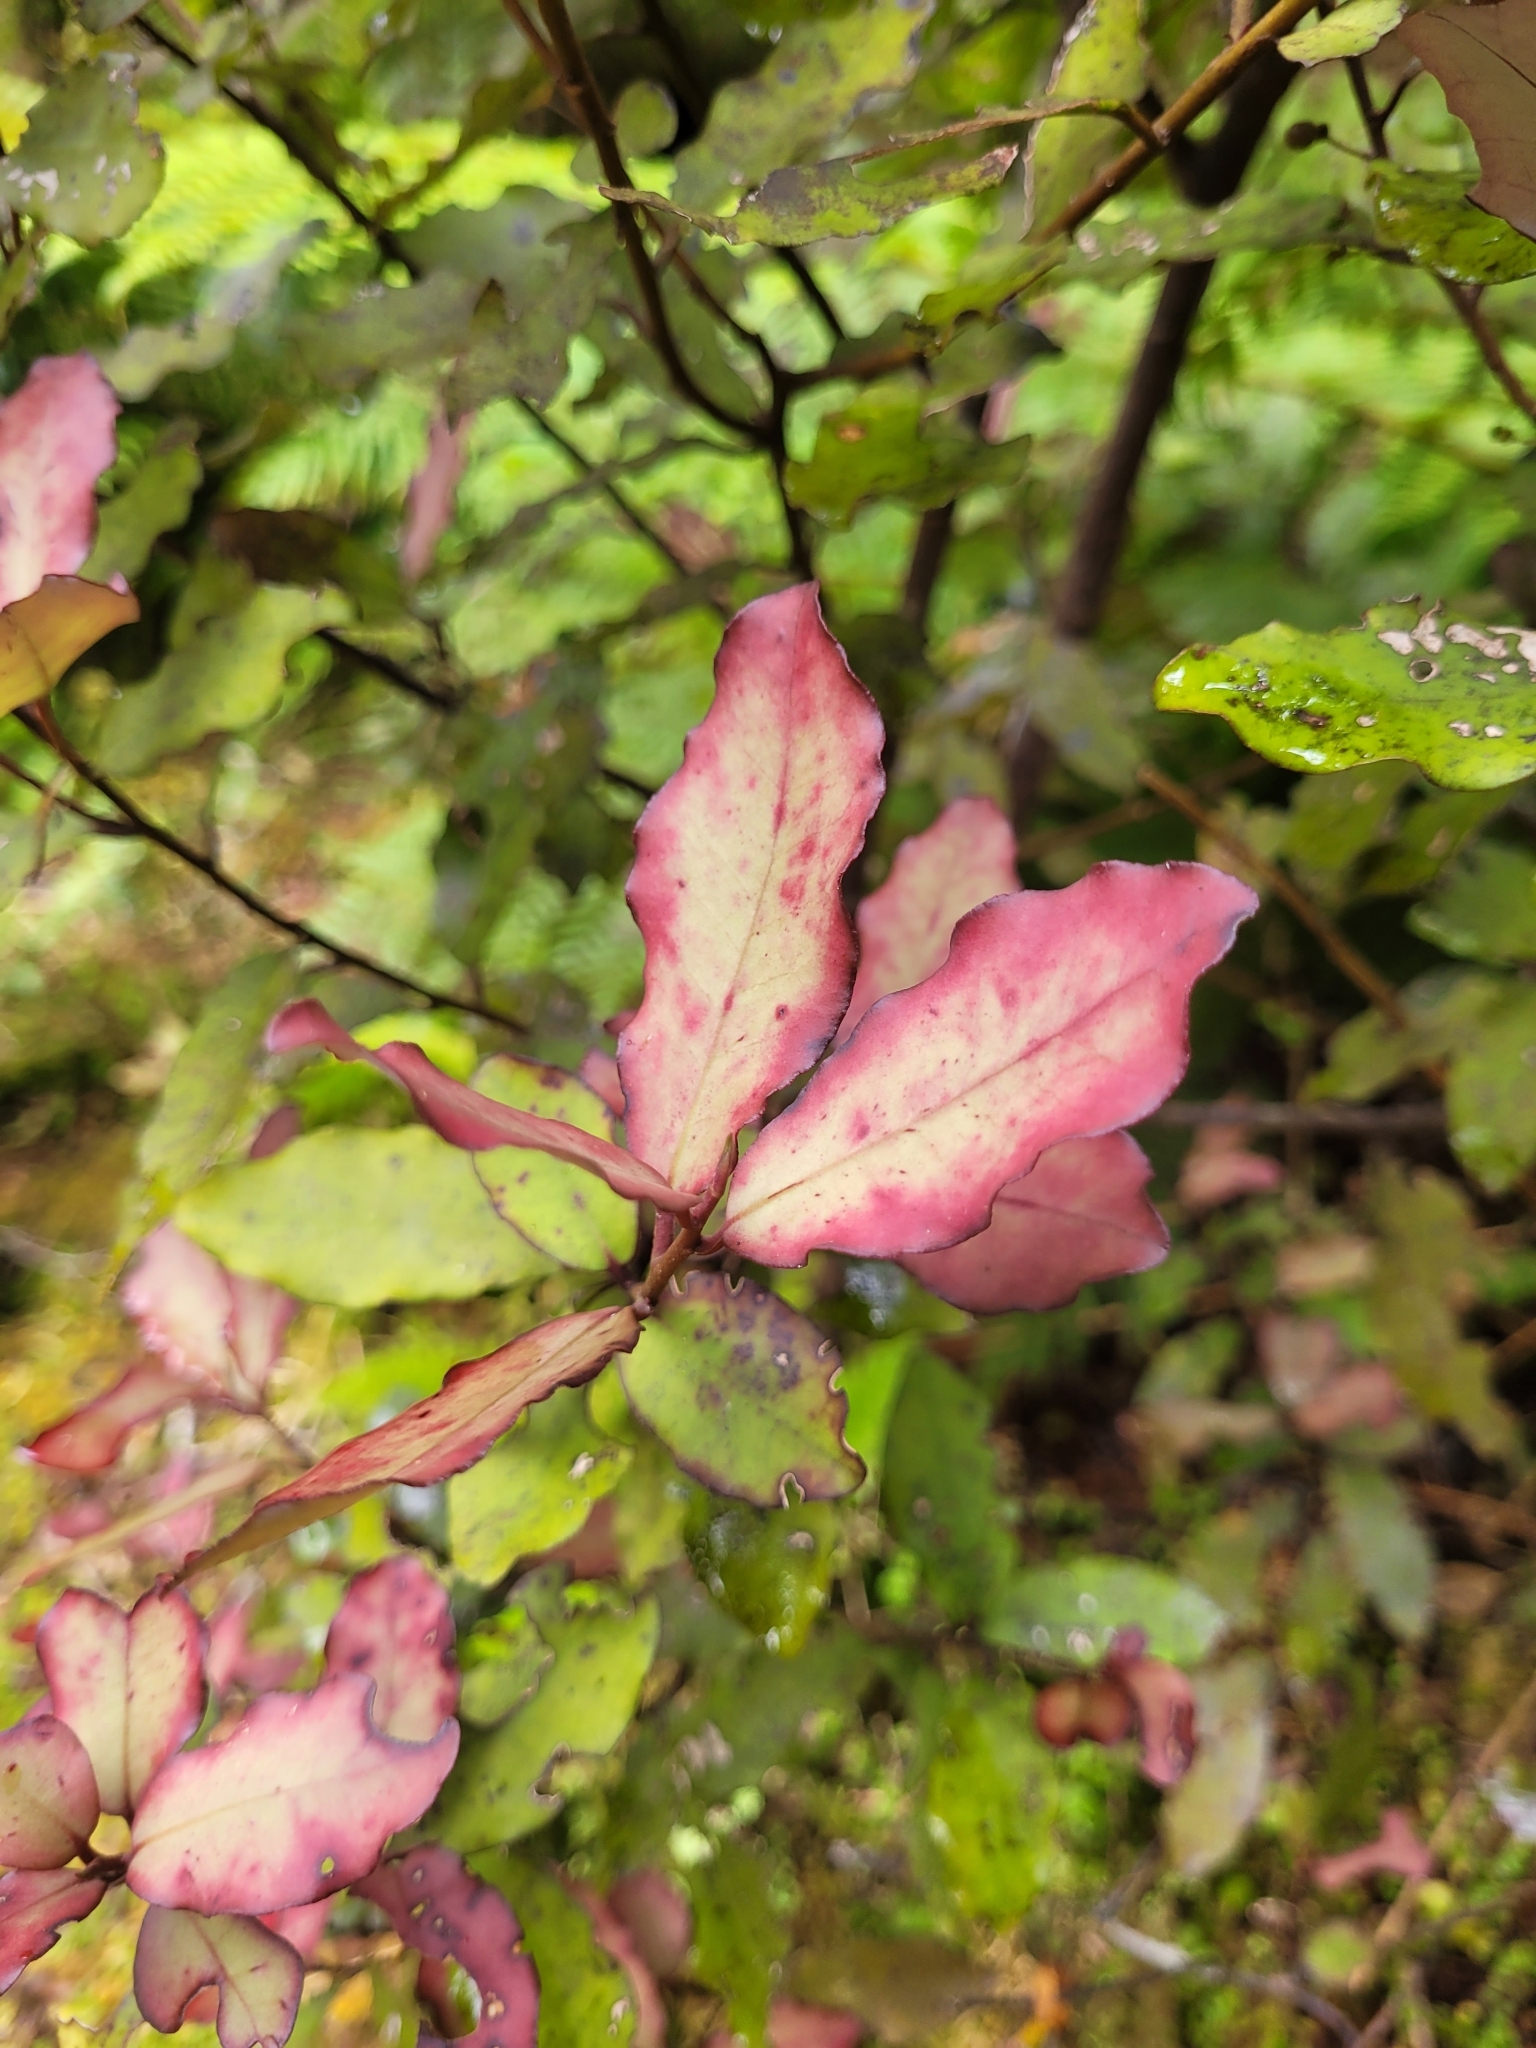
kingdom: Plantae
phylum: Tracheophyta
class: Magnoliopsida
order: Canellales
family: Winteraceae
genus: Pseudowintera
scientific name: Pseudowintera colorata
